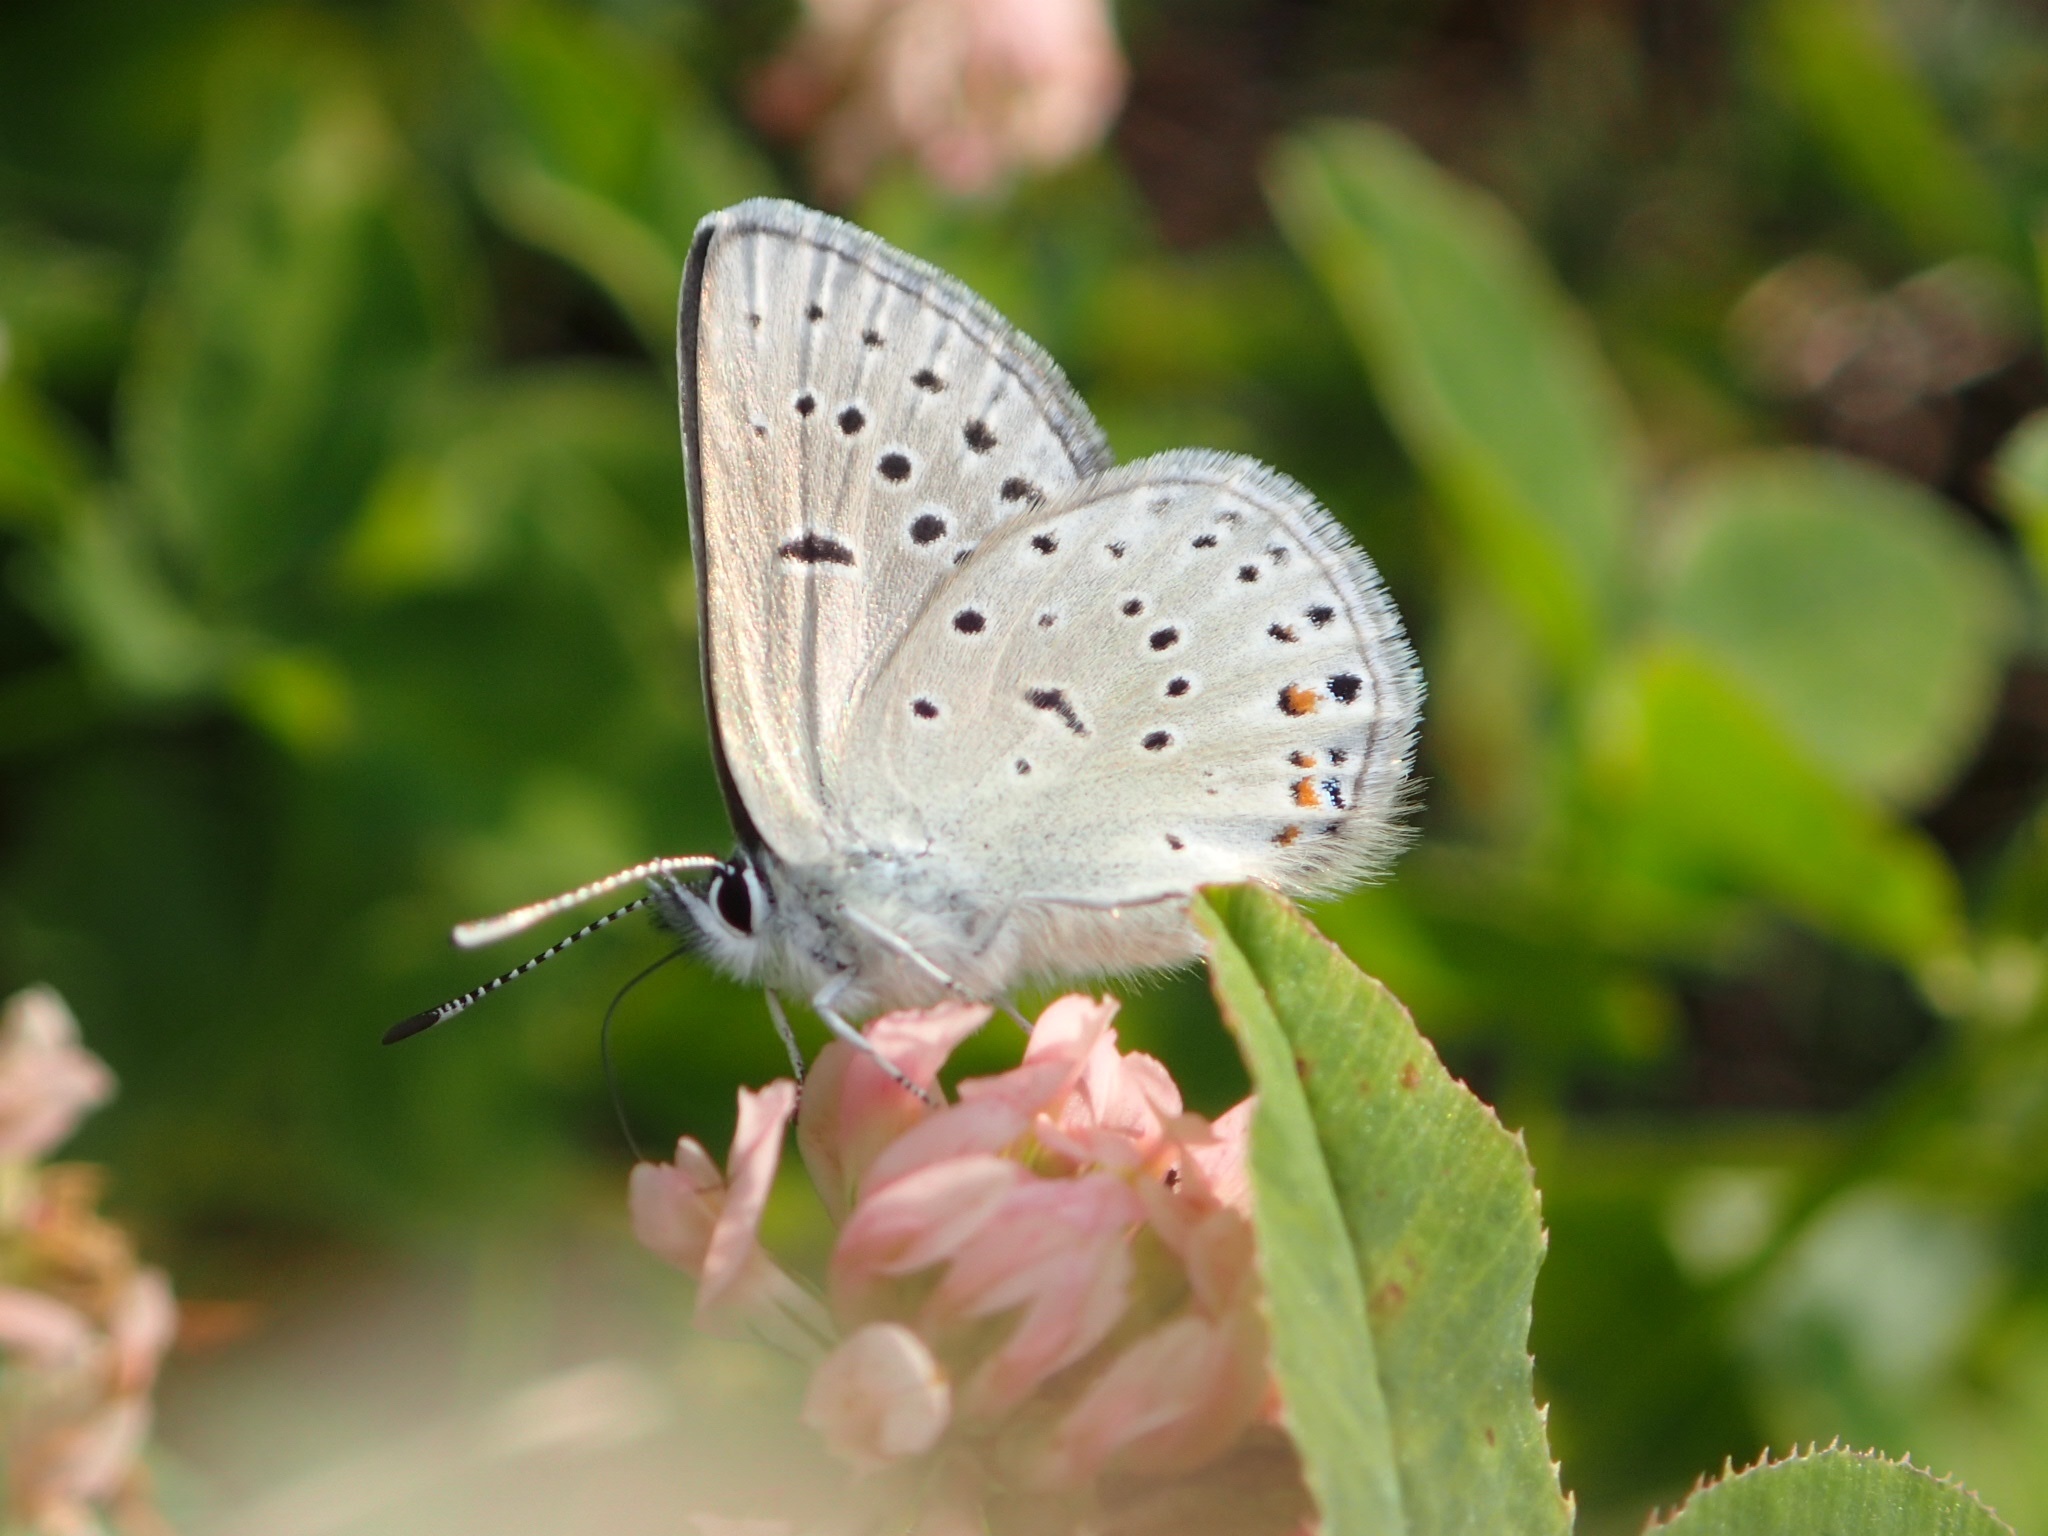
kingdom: Animalia
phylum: Arthropoda
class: Insecta
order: Lepidoptera
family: Lycaenidae
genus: Icaricia
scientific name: Icaricia saepiolus
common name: Greenish blue
